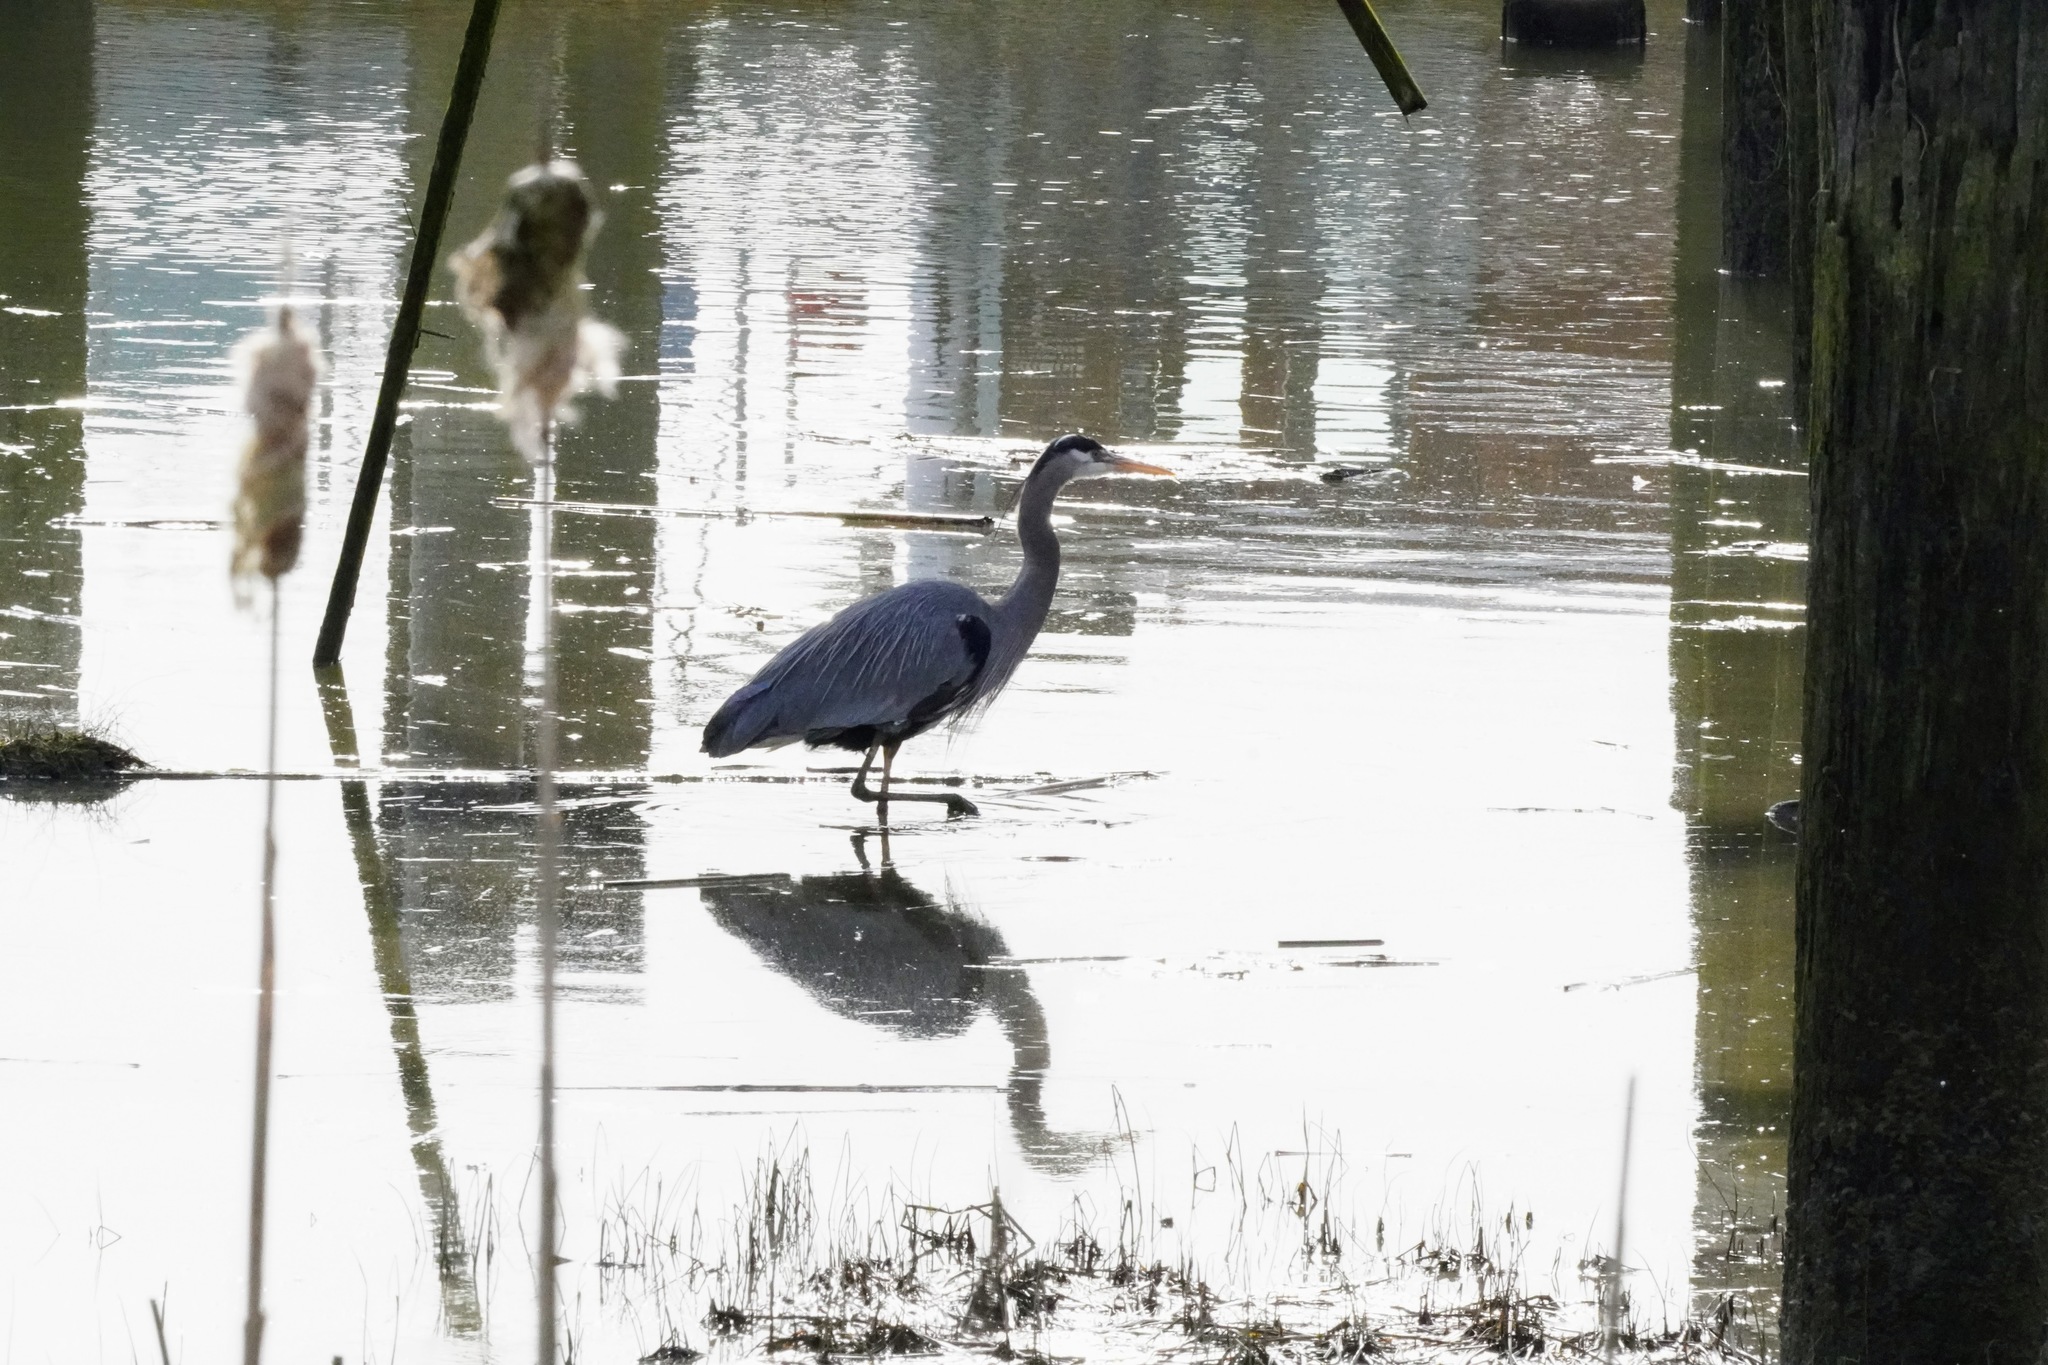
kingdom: Animalia
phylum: Chordata
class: Aves
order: Pelecaniformes
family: Ardeidae
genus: Ardea
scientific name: Ardea herodias
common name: Great blue heron
